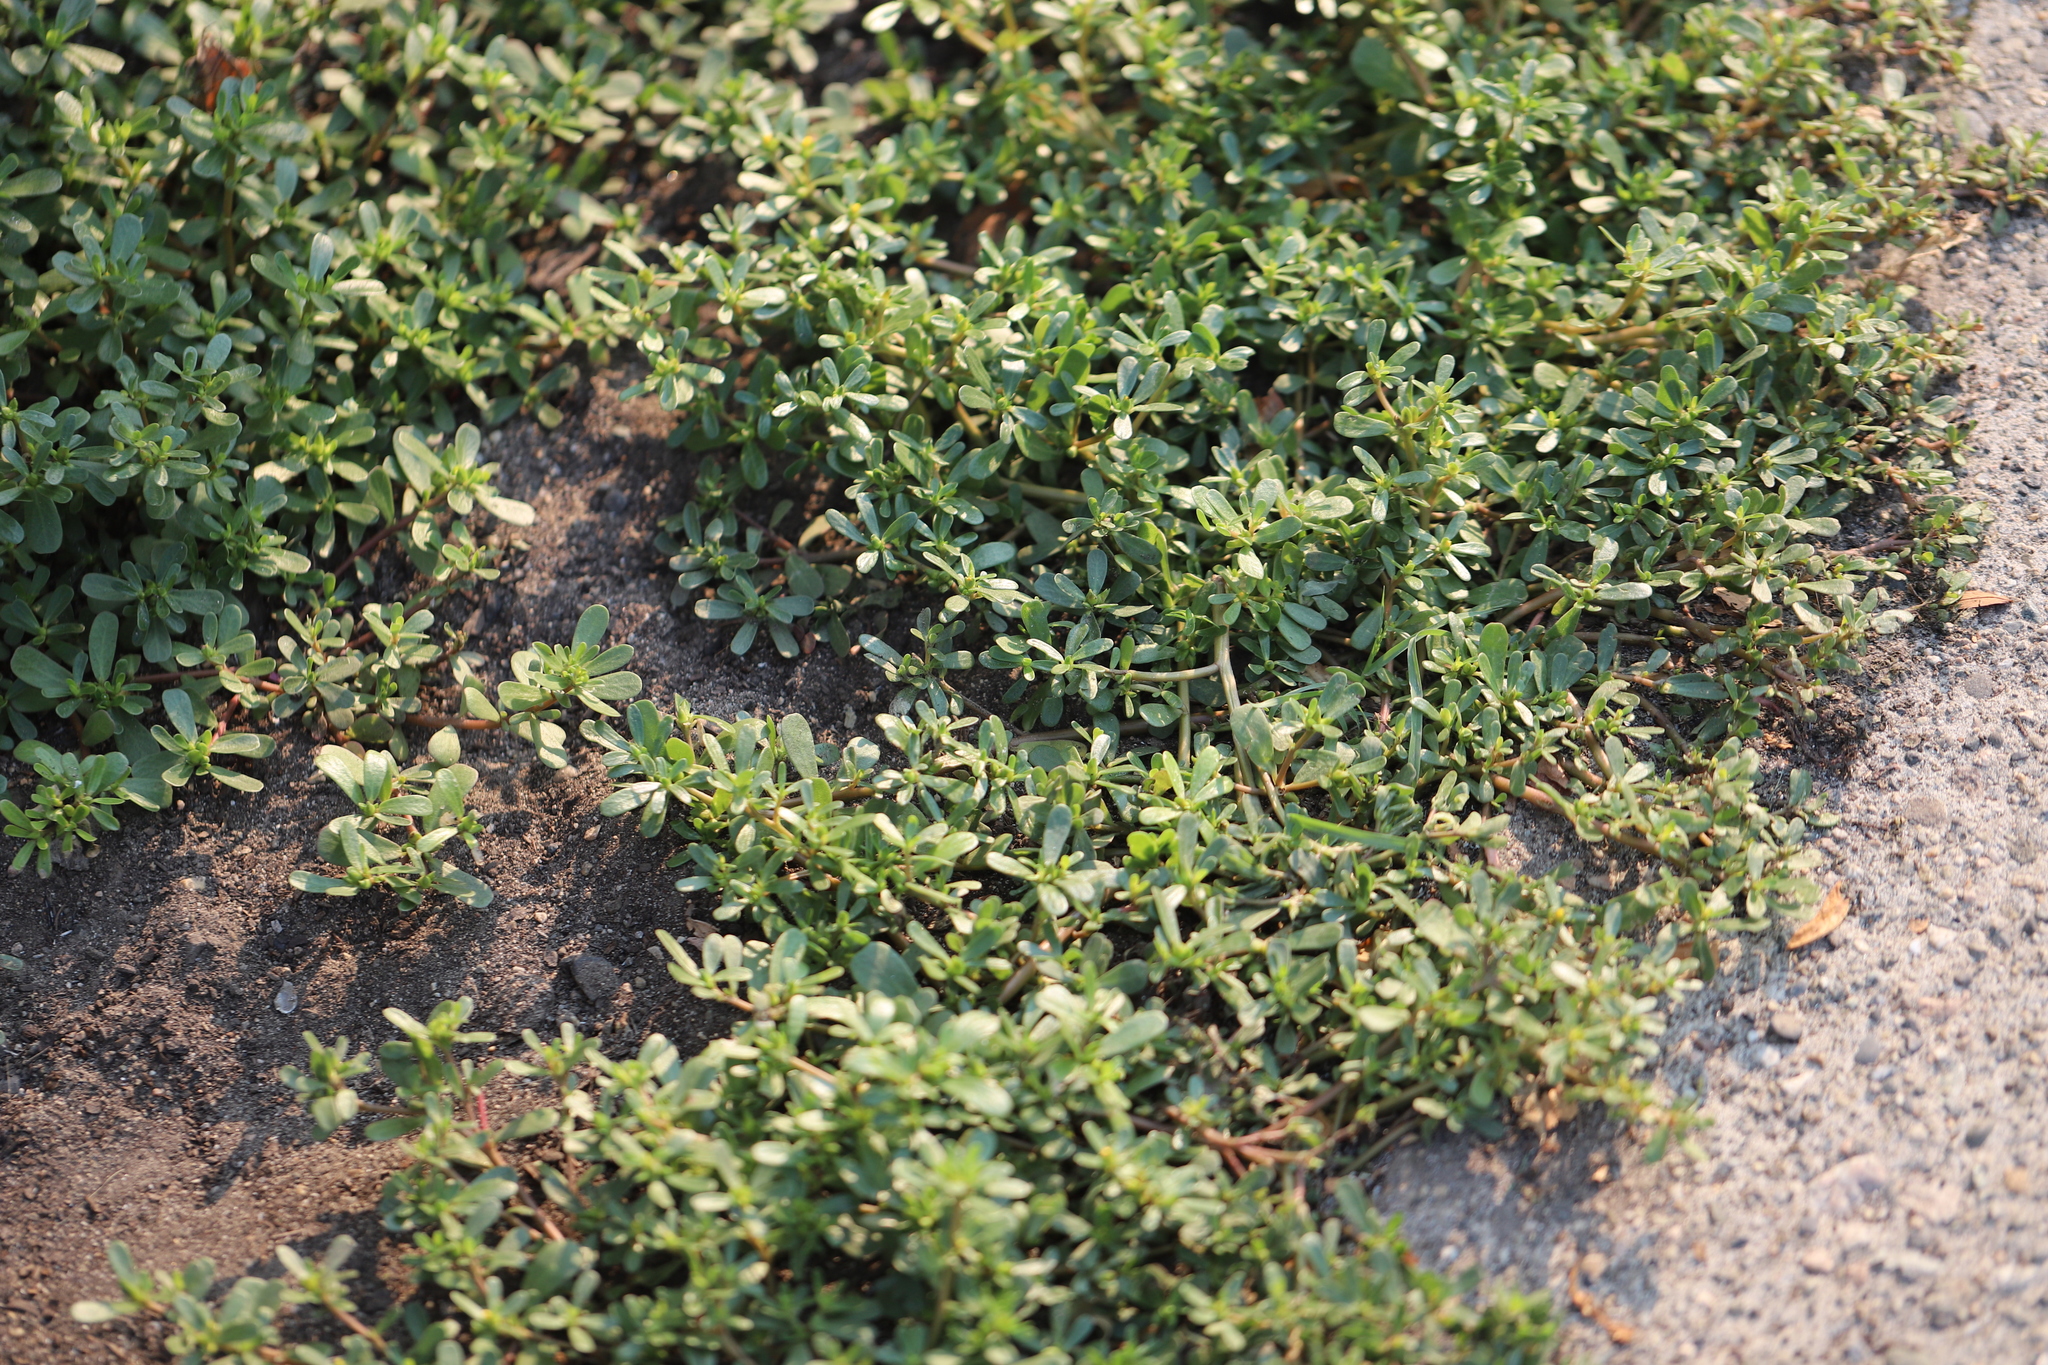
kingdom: Plantae
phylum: Tracheophyta
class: Magnoliopsida
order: Caryophyllales
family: Portulacaceae
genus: Portulaca
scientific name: Portulaca oleracea
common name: Common purslane
